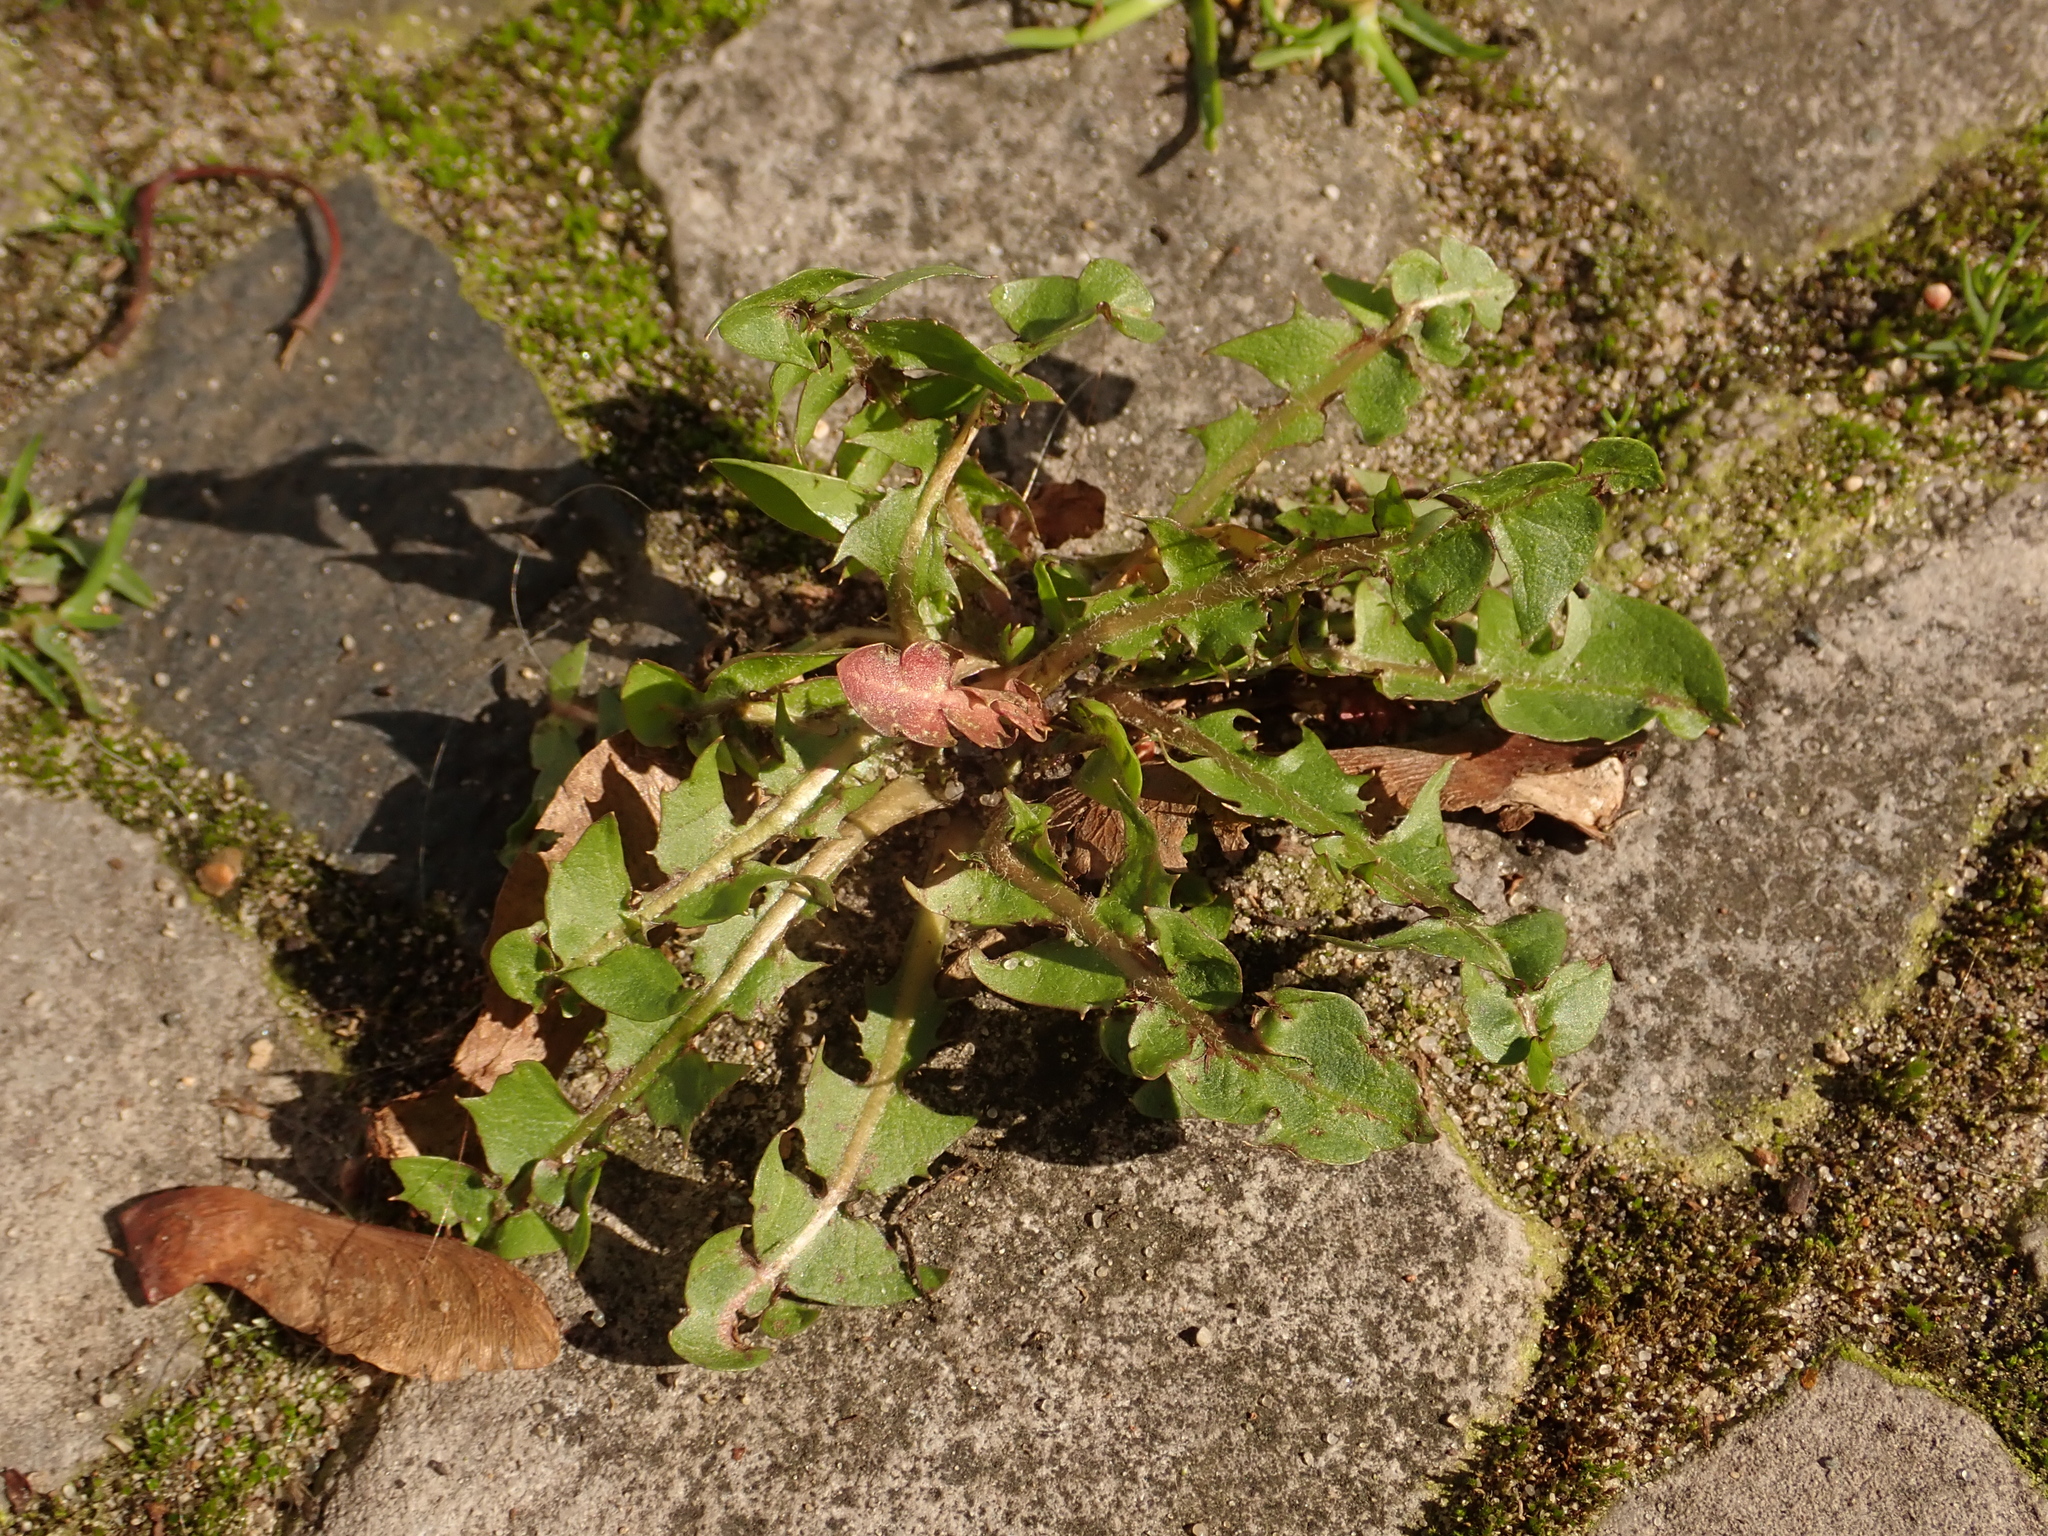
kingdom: Plantae
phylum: Tracheophyta
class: Magnoliopsida
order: Asterales
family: Asteraceae
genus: Taraxacum
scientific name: Taraxacum officinale
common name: Common dandelion
